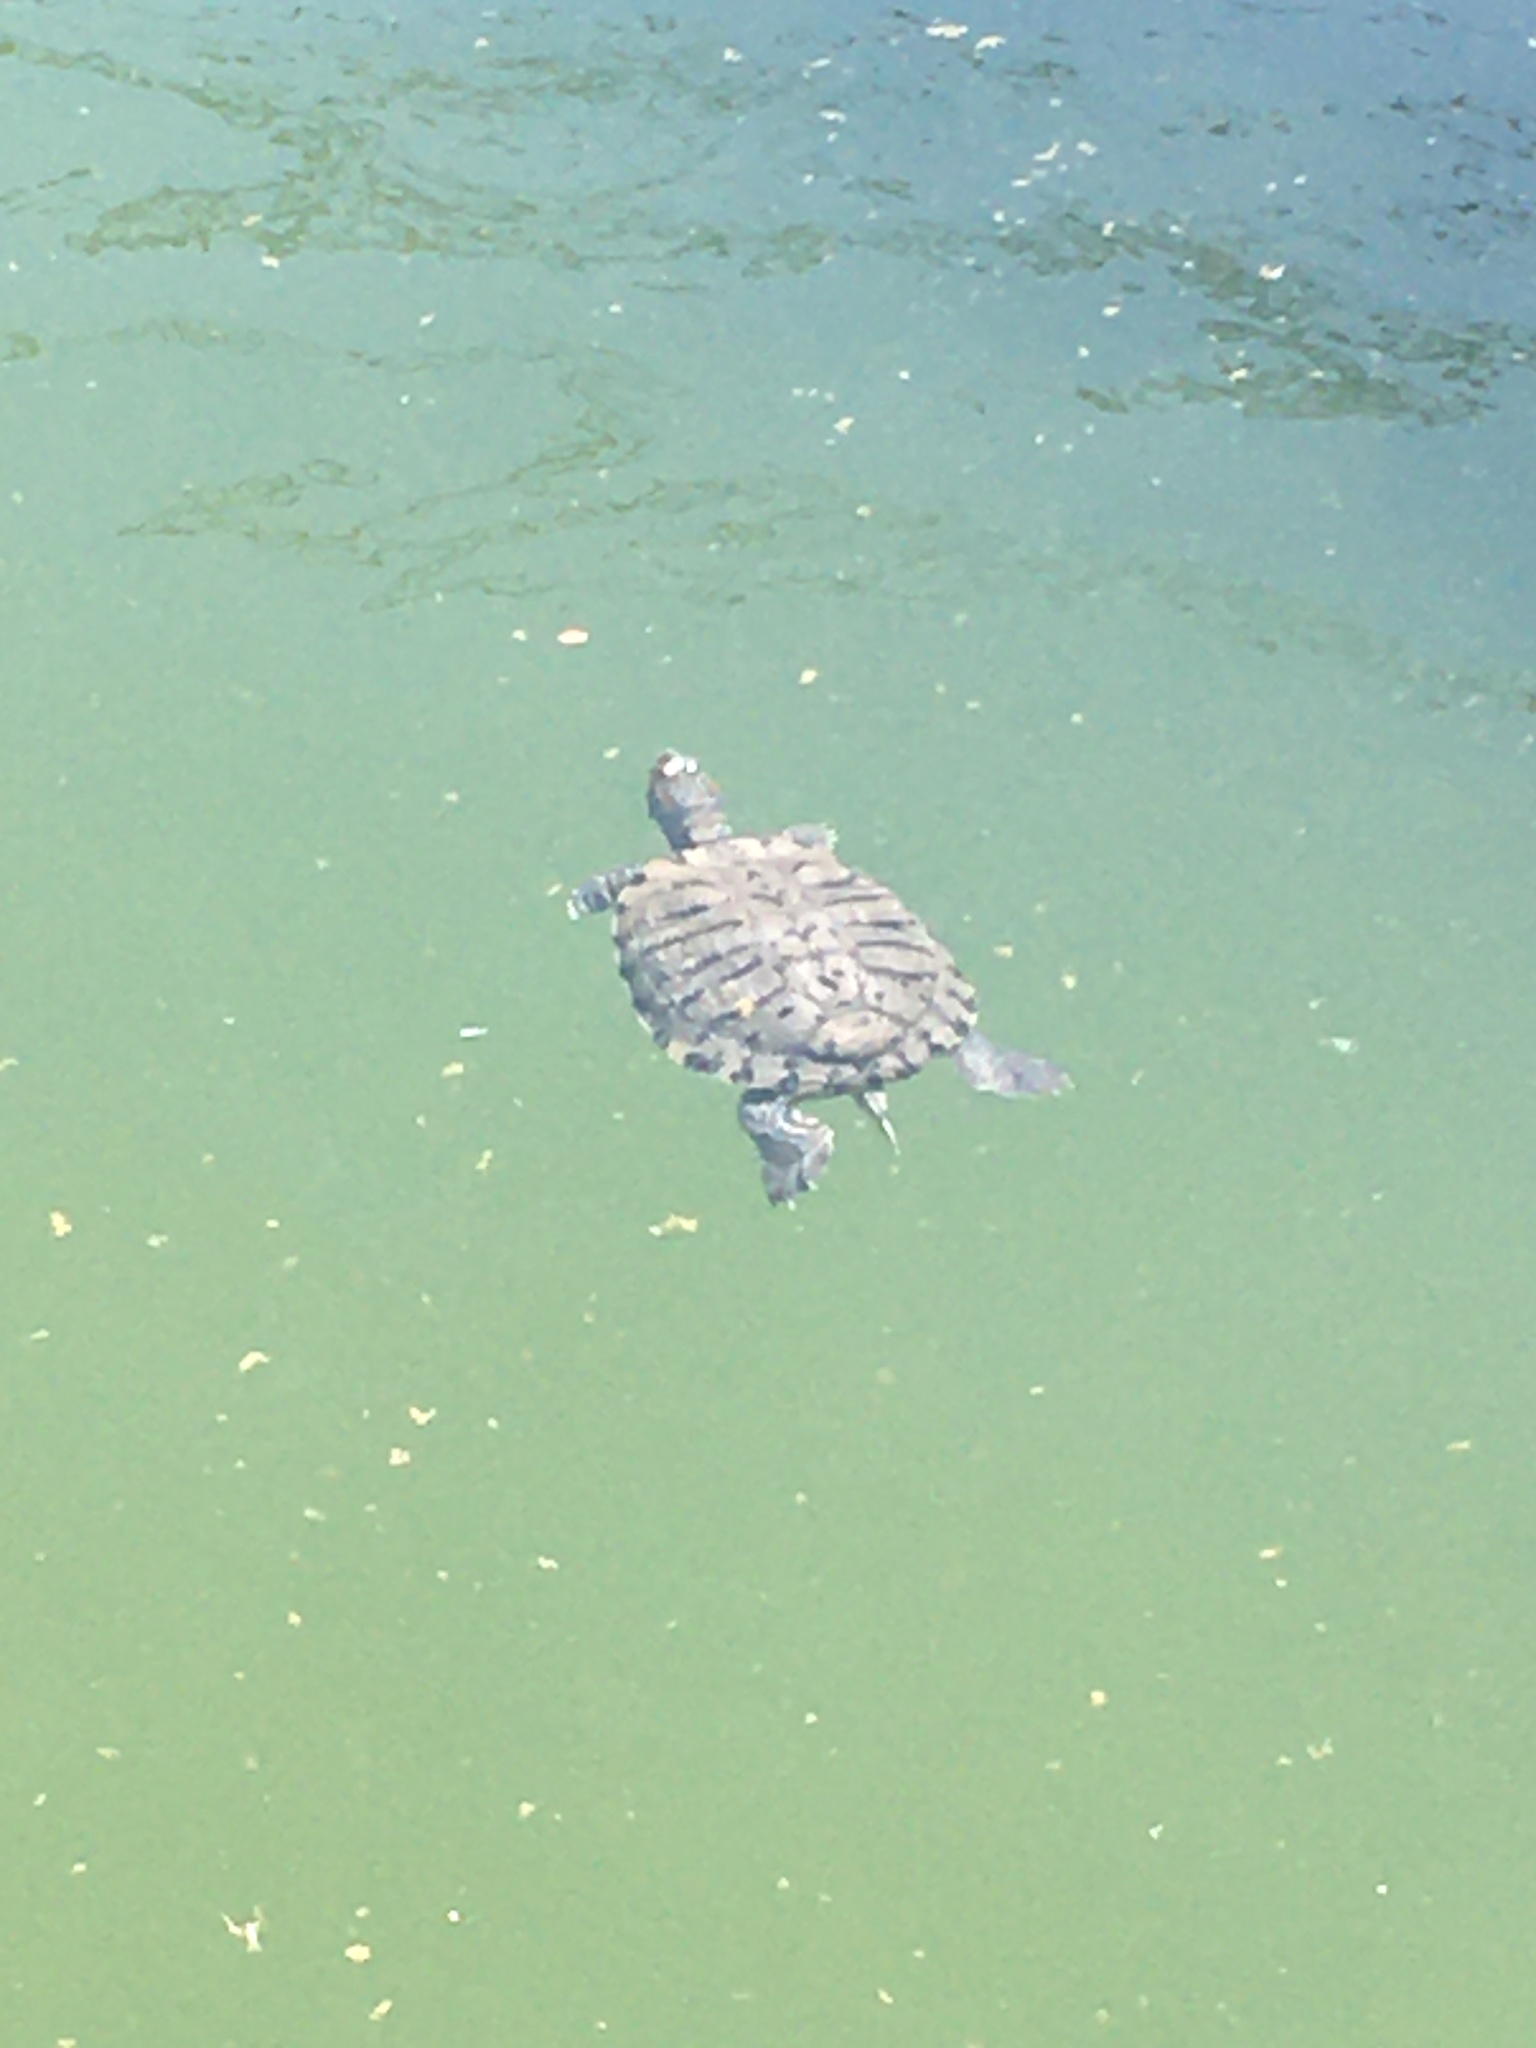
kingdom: Animalia
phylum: Chordata
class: Testudines
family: Emydidae
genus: Trachemys
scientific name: Trachemys scripta
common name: Slider
